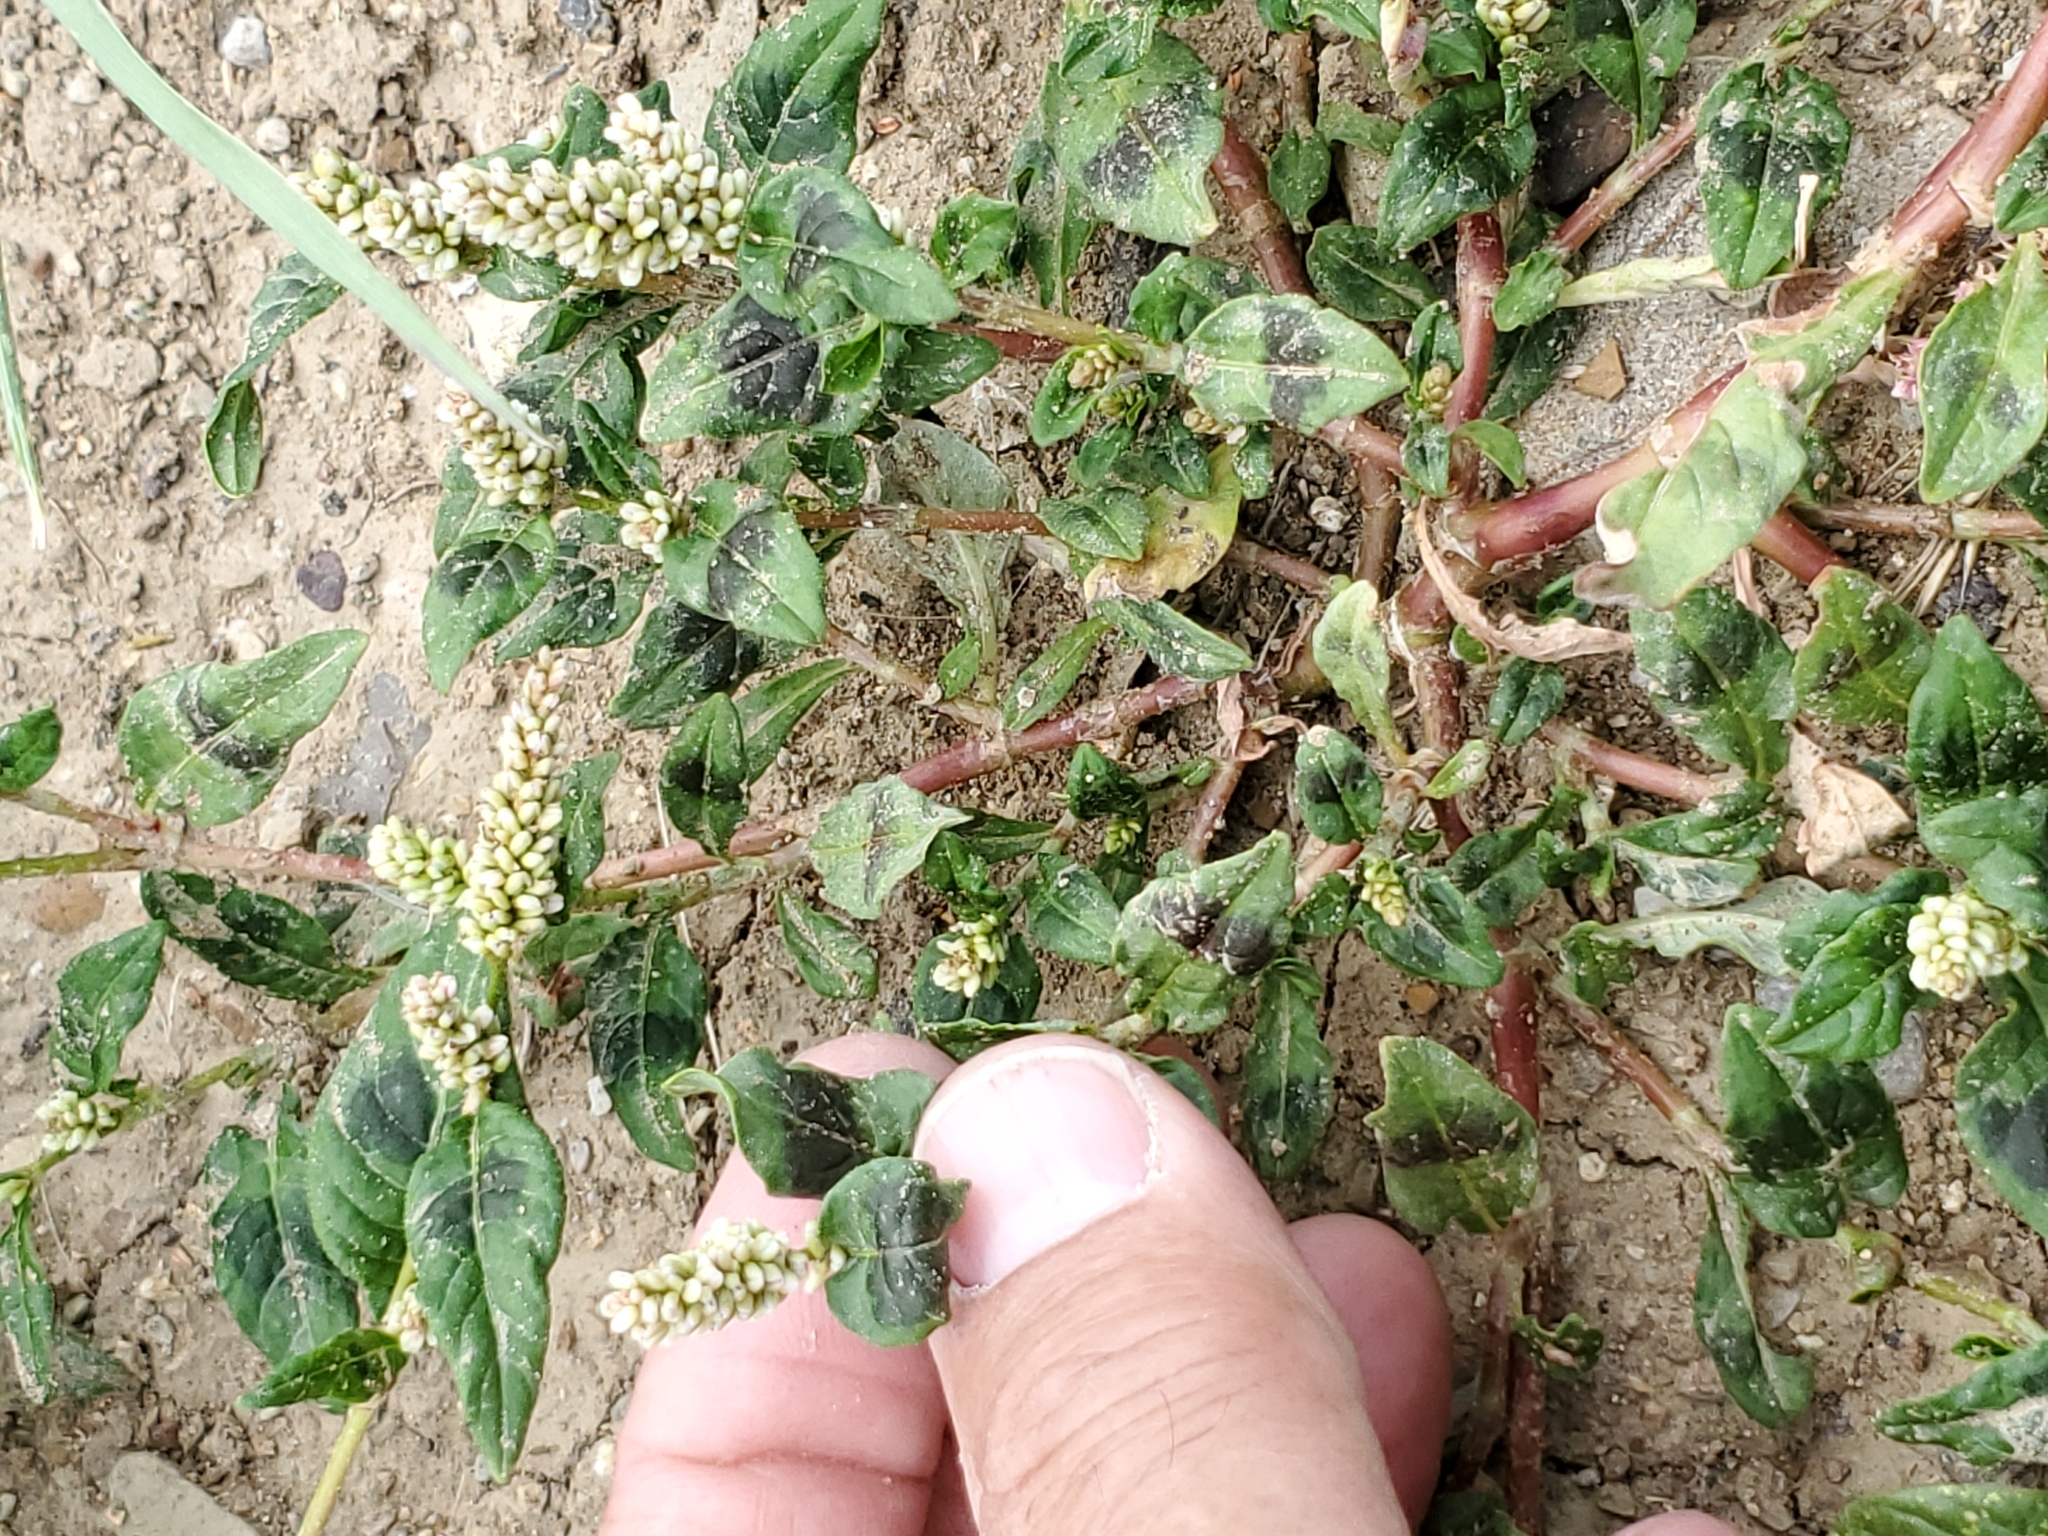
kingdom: Plantae
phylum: Tracheophyta
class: Magnoliopsida
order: Caryophyllales
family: Polygonaceae
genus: Persicaria
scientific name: Persicaria lapathifolia
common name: Curlytop knotweed
